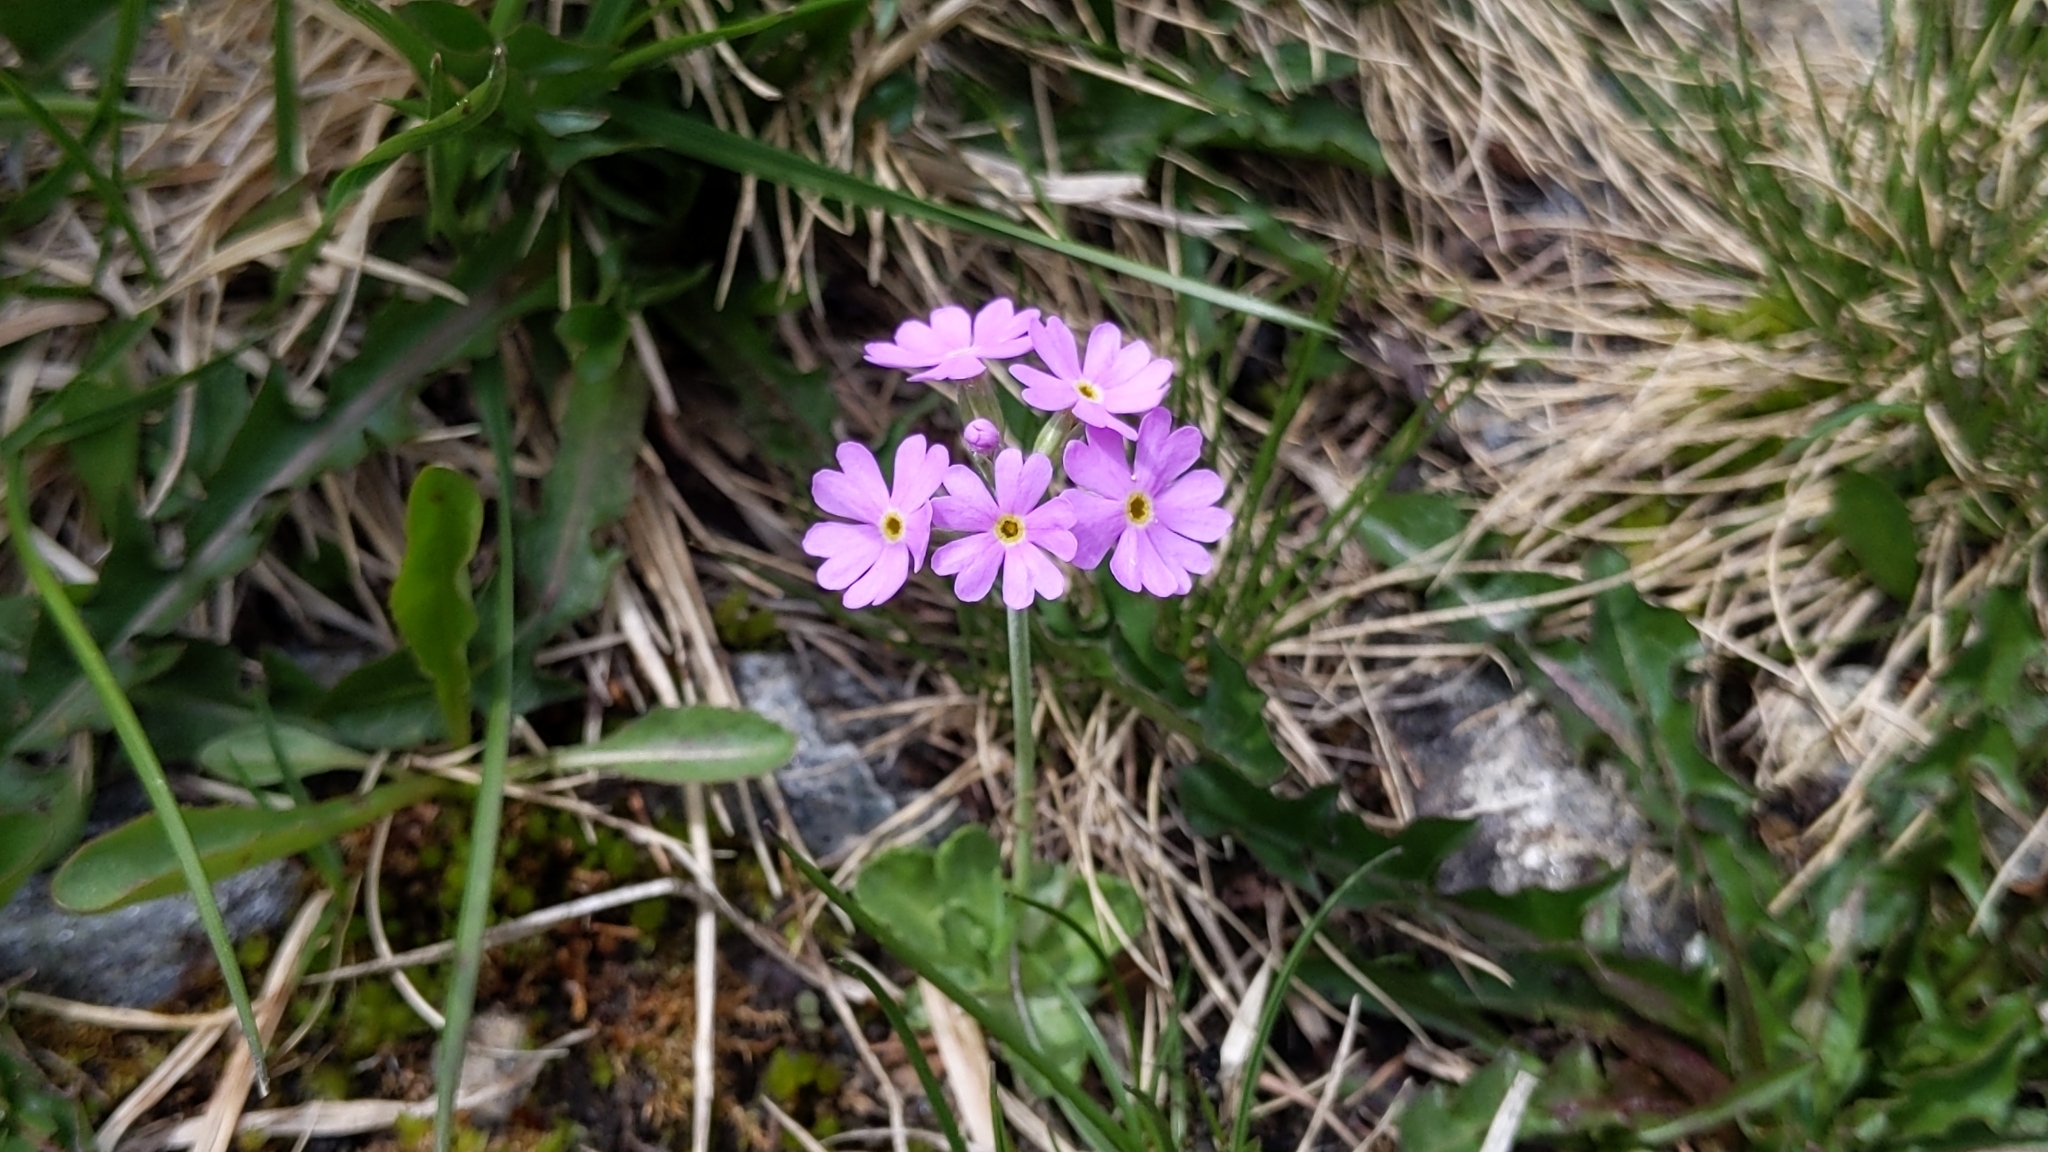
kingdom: Plantae
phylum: Tracheophyta
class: Magnoliopsida
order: Ericales
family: Primulaceae
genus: Primula
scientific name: Primula farinosa
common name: Bird's-eye primrose
